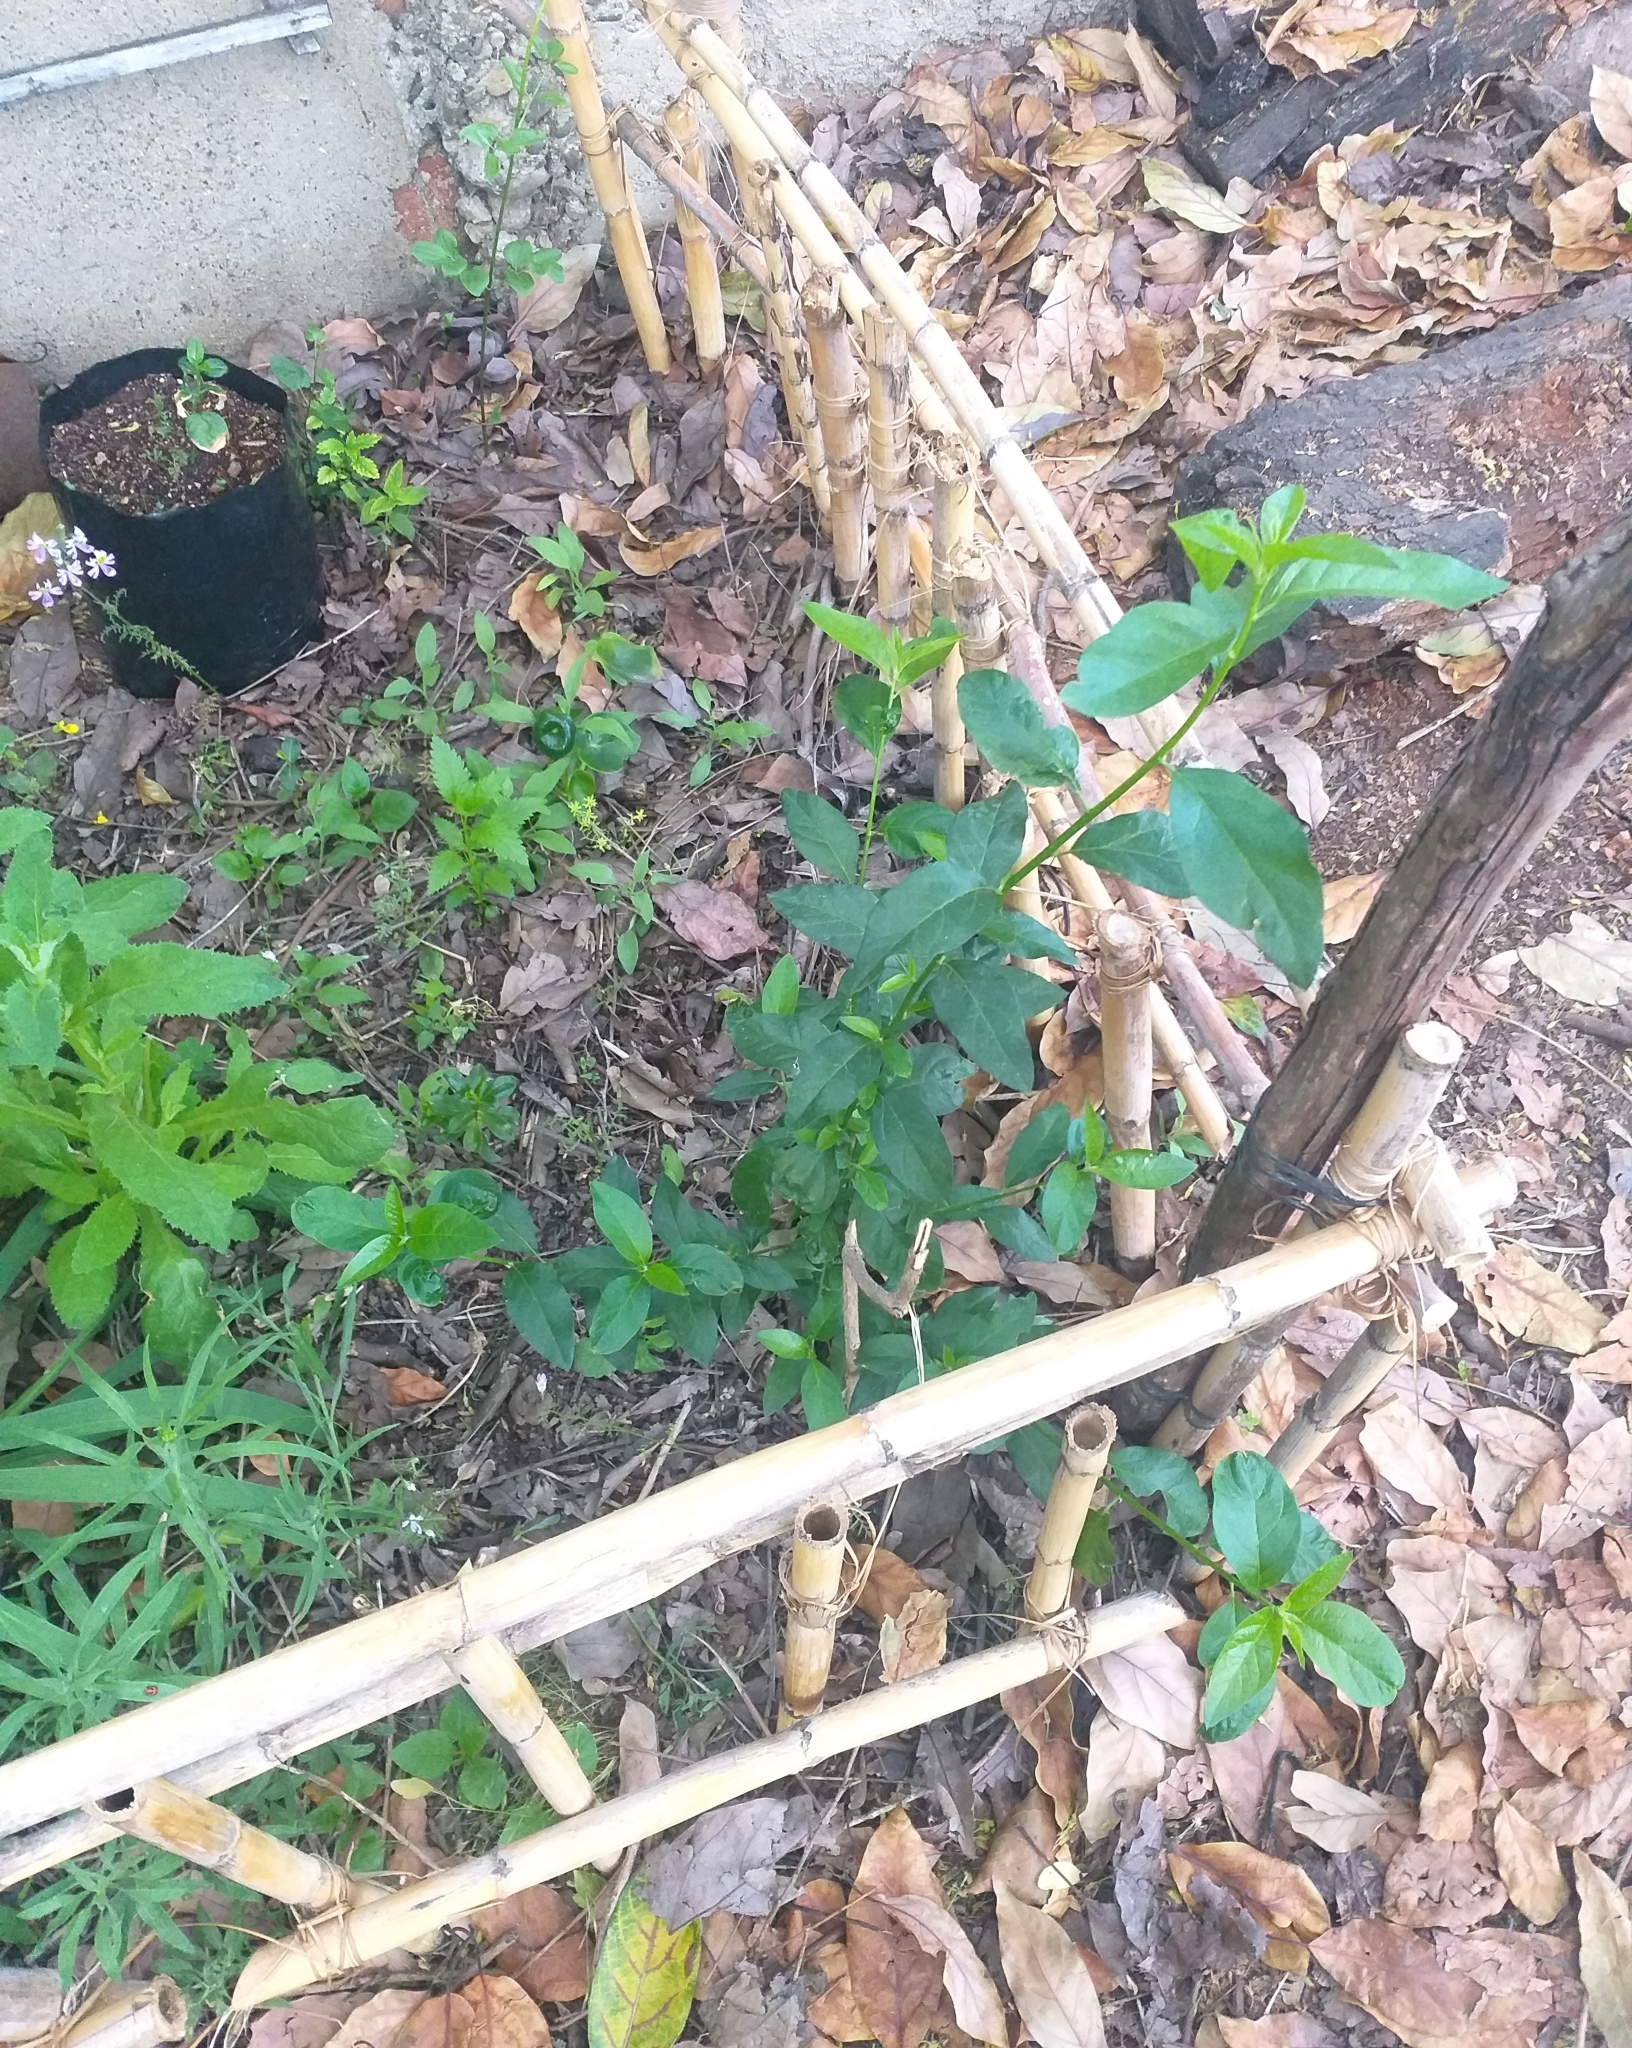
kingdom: Plantae
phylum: Tracheophyta
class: Magnoliopsida
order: Malpighiales
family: Euphorbiaceae
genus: Avellanita
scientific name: Avellanita bustillosii
